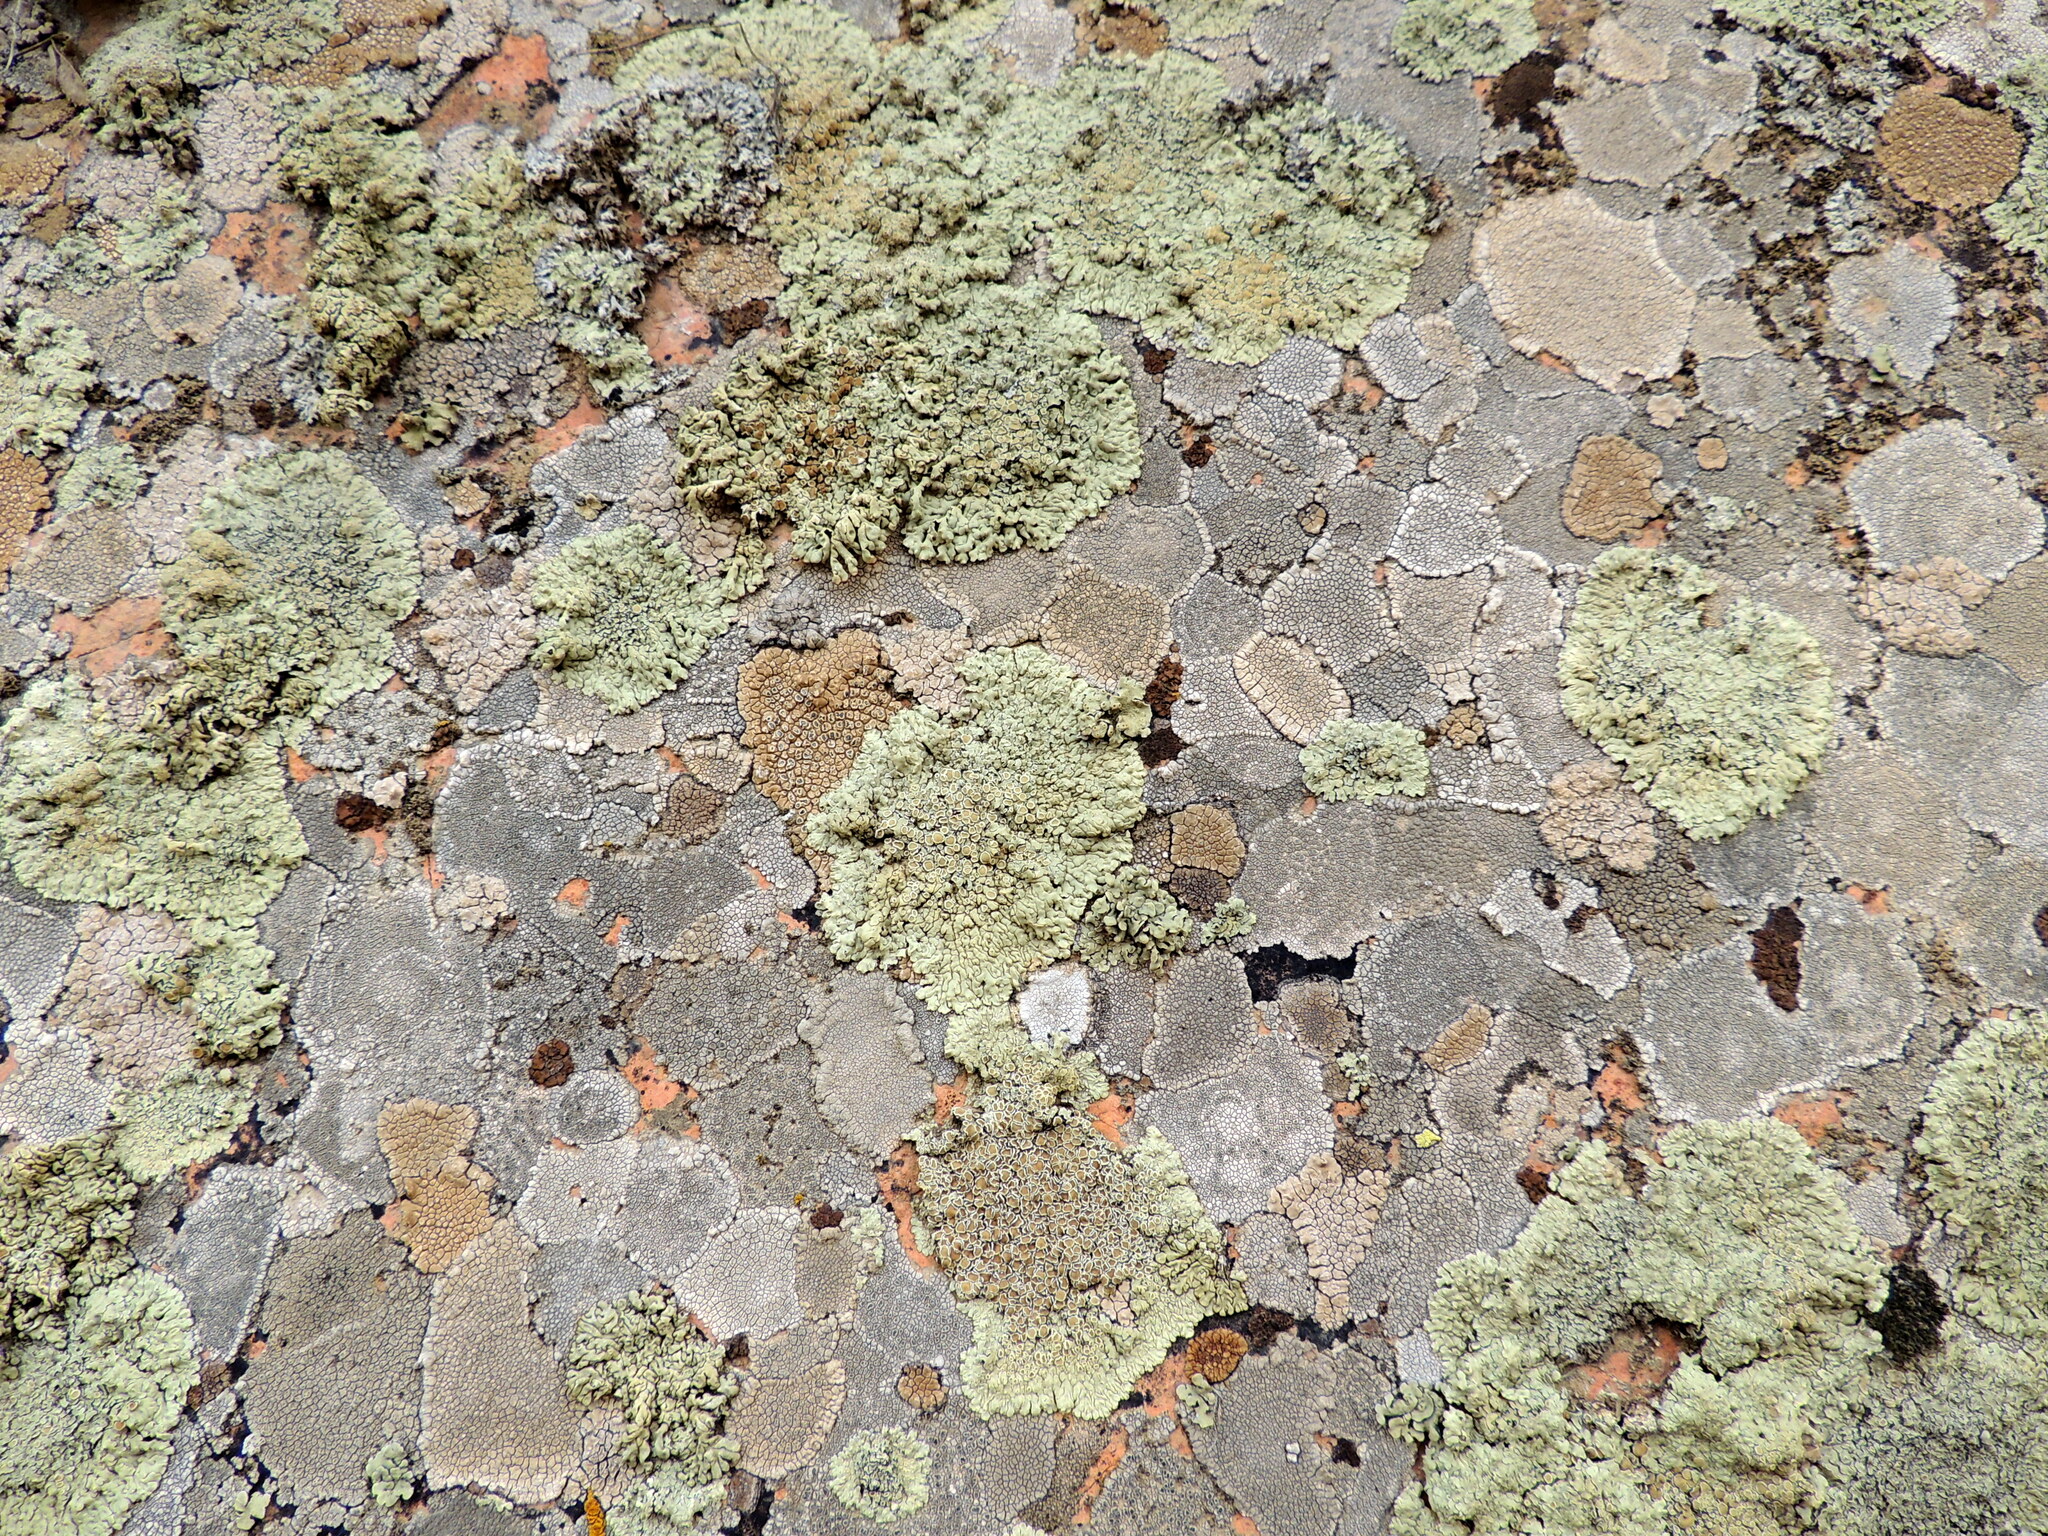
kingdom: Fungi
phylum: Ascomycota
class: Lecanoromycetes
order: Lecanorales
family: Lecanoraceae
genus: Protoparmeliopsis
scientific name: Protoparmeliopsis muralis
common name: Stonewall rim lichen
